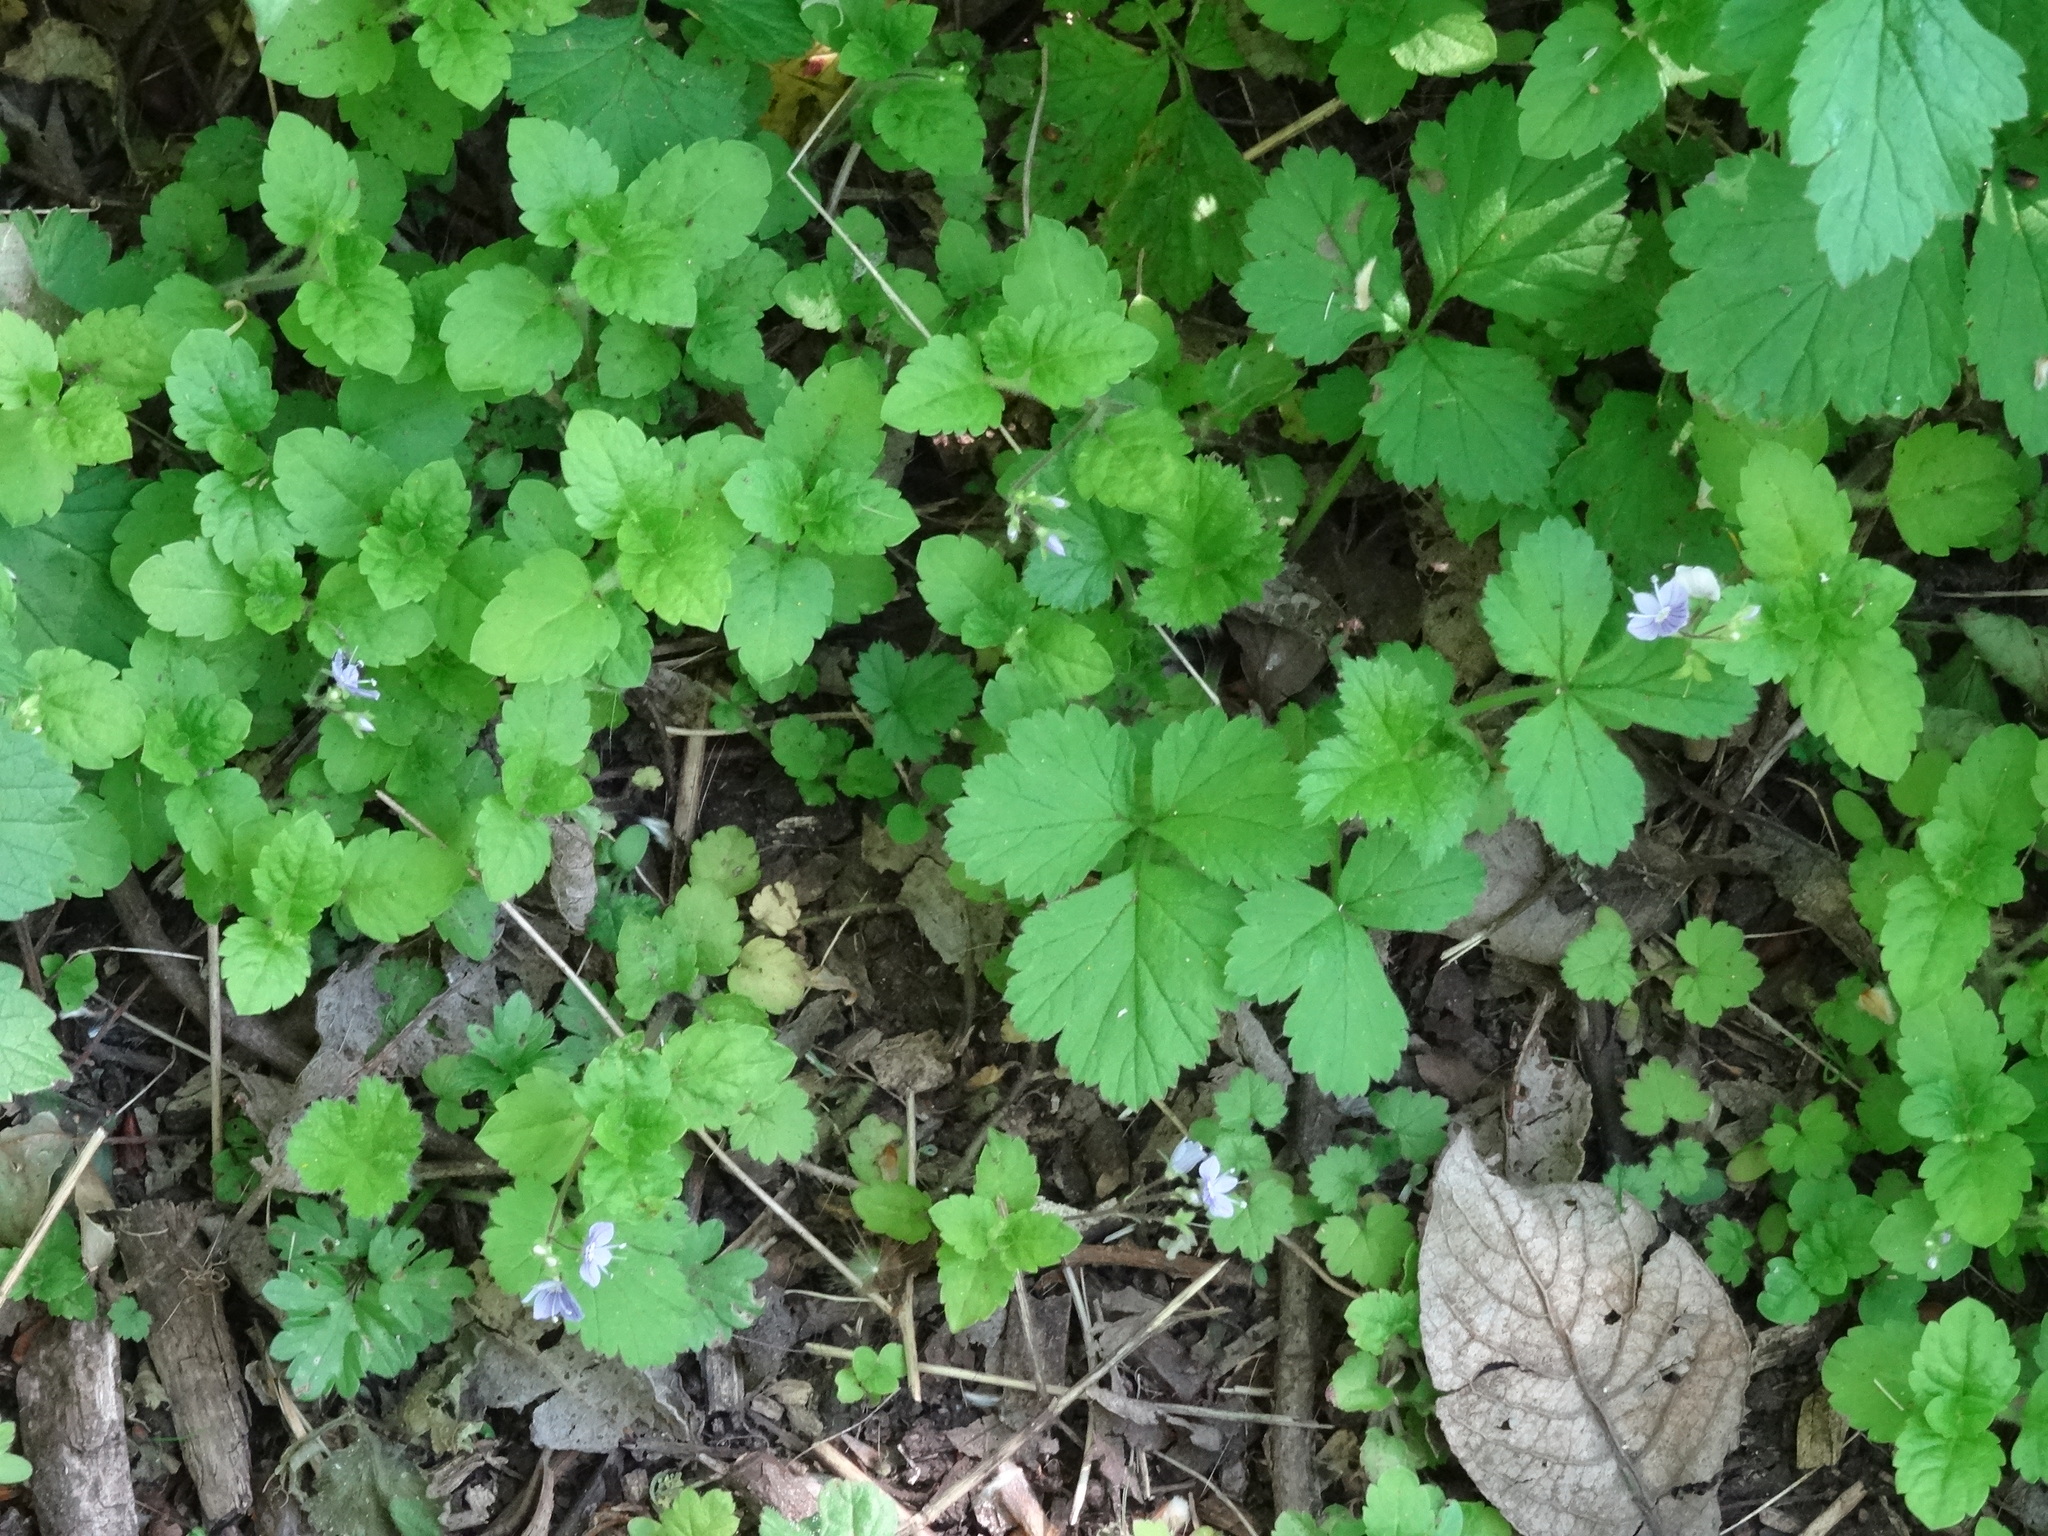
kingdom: Plantae
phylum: Tracheophyta
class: Magnoliopsida
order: Lamiales
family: Plantaginaceae
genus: Veronica
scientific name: Veronica montana
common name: Wood speedwell
